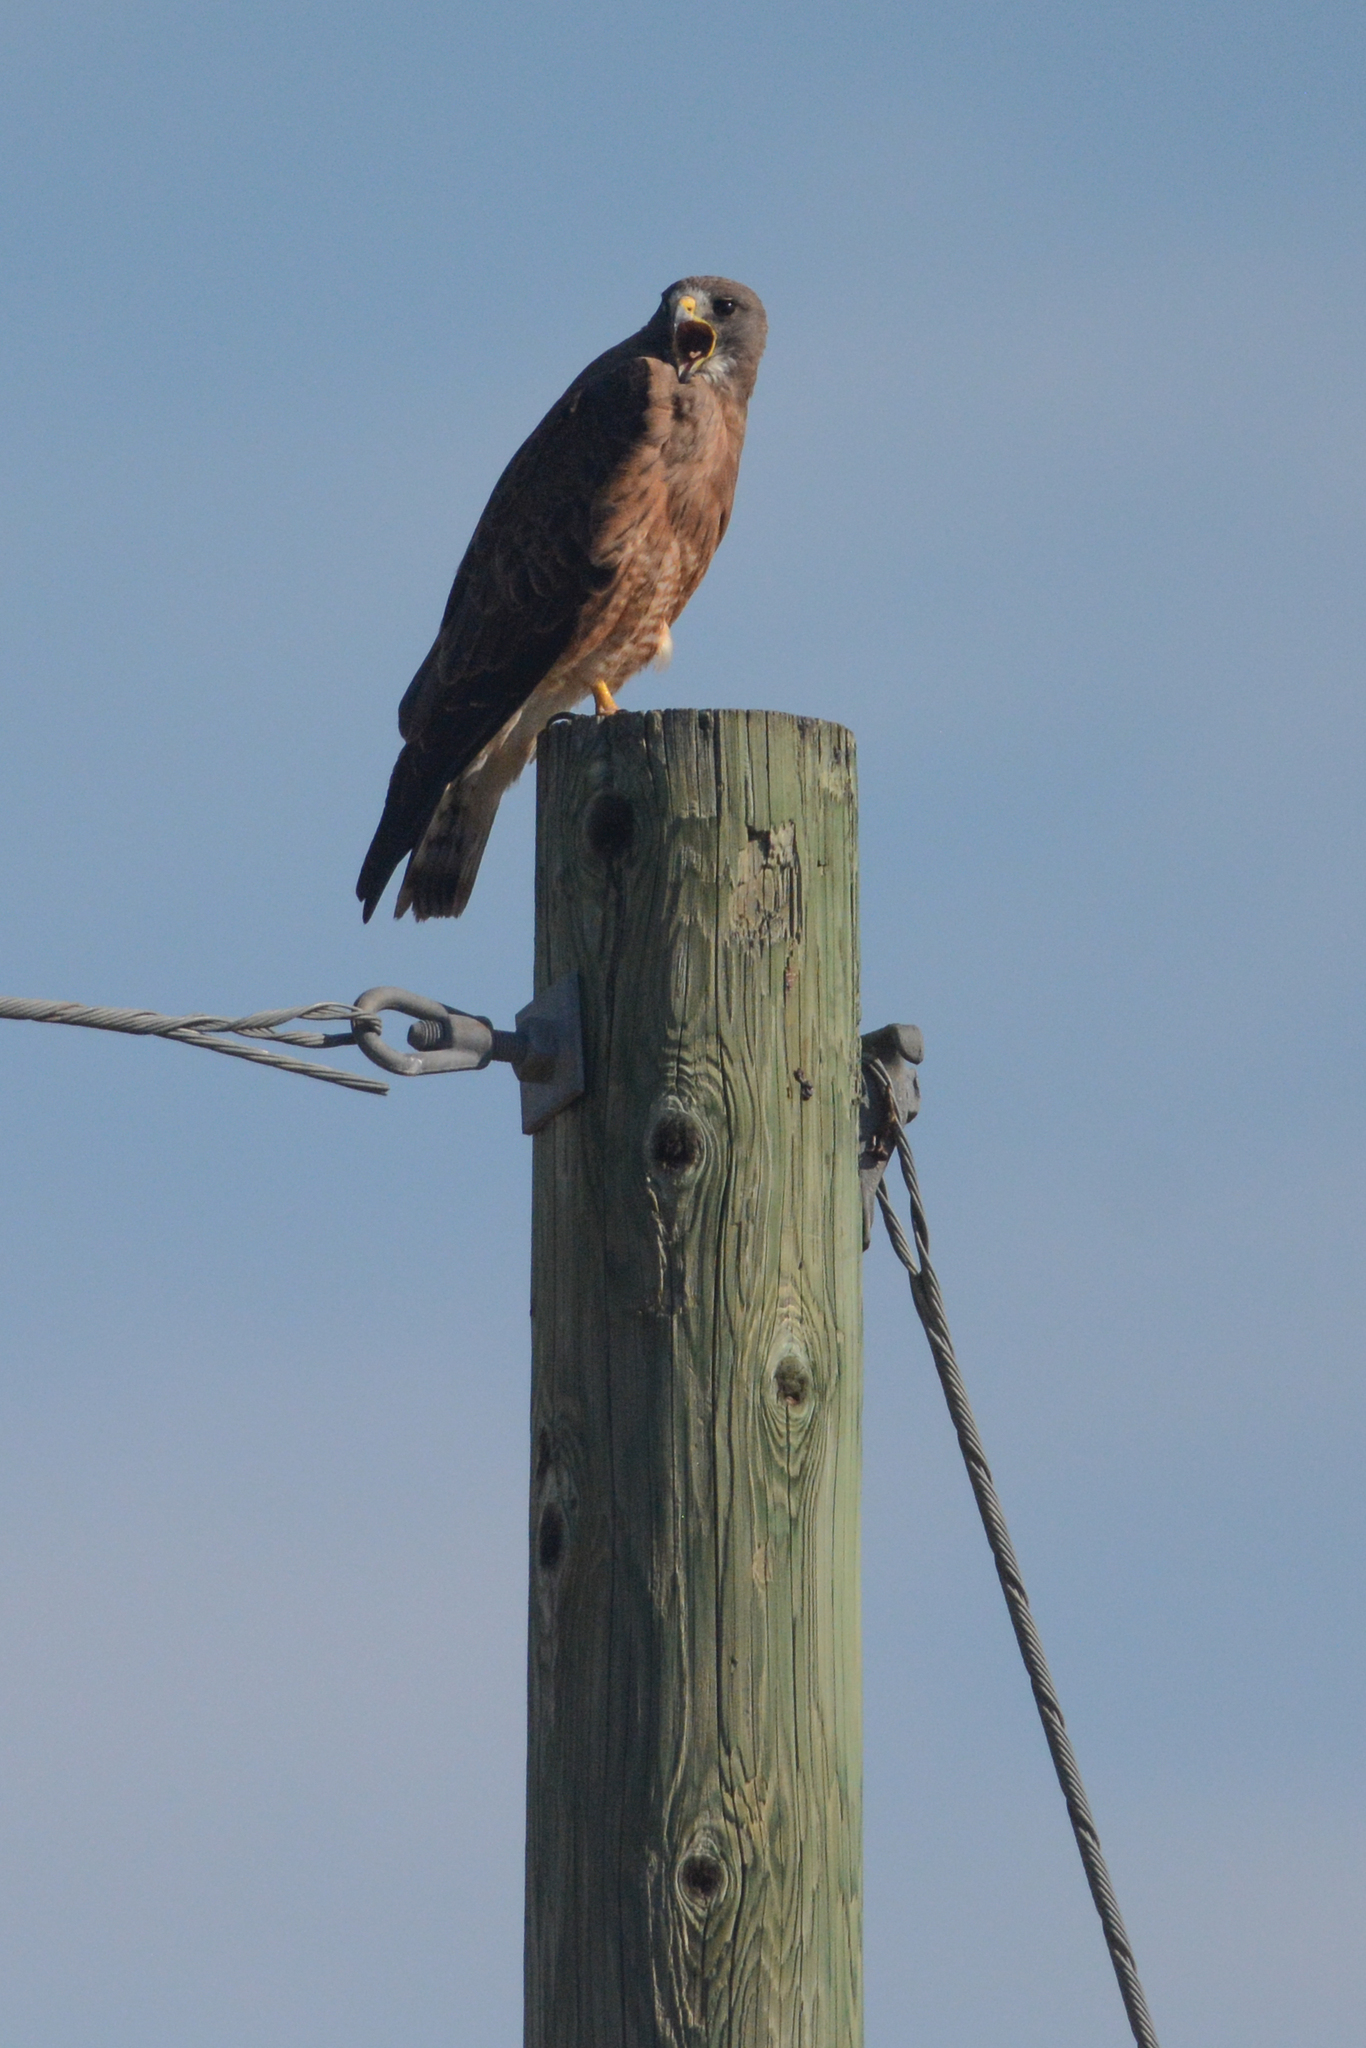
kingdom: Animalia
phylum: Chordata
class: Aves
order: Accipitriformes
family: Accipitridae
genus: Buteo
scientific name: Buteo swainsoni
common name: Swainson's hawk
